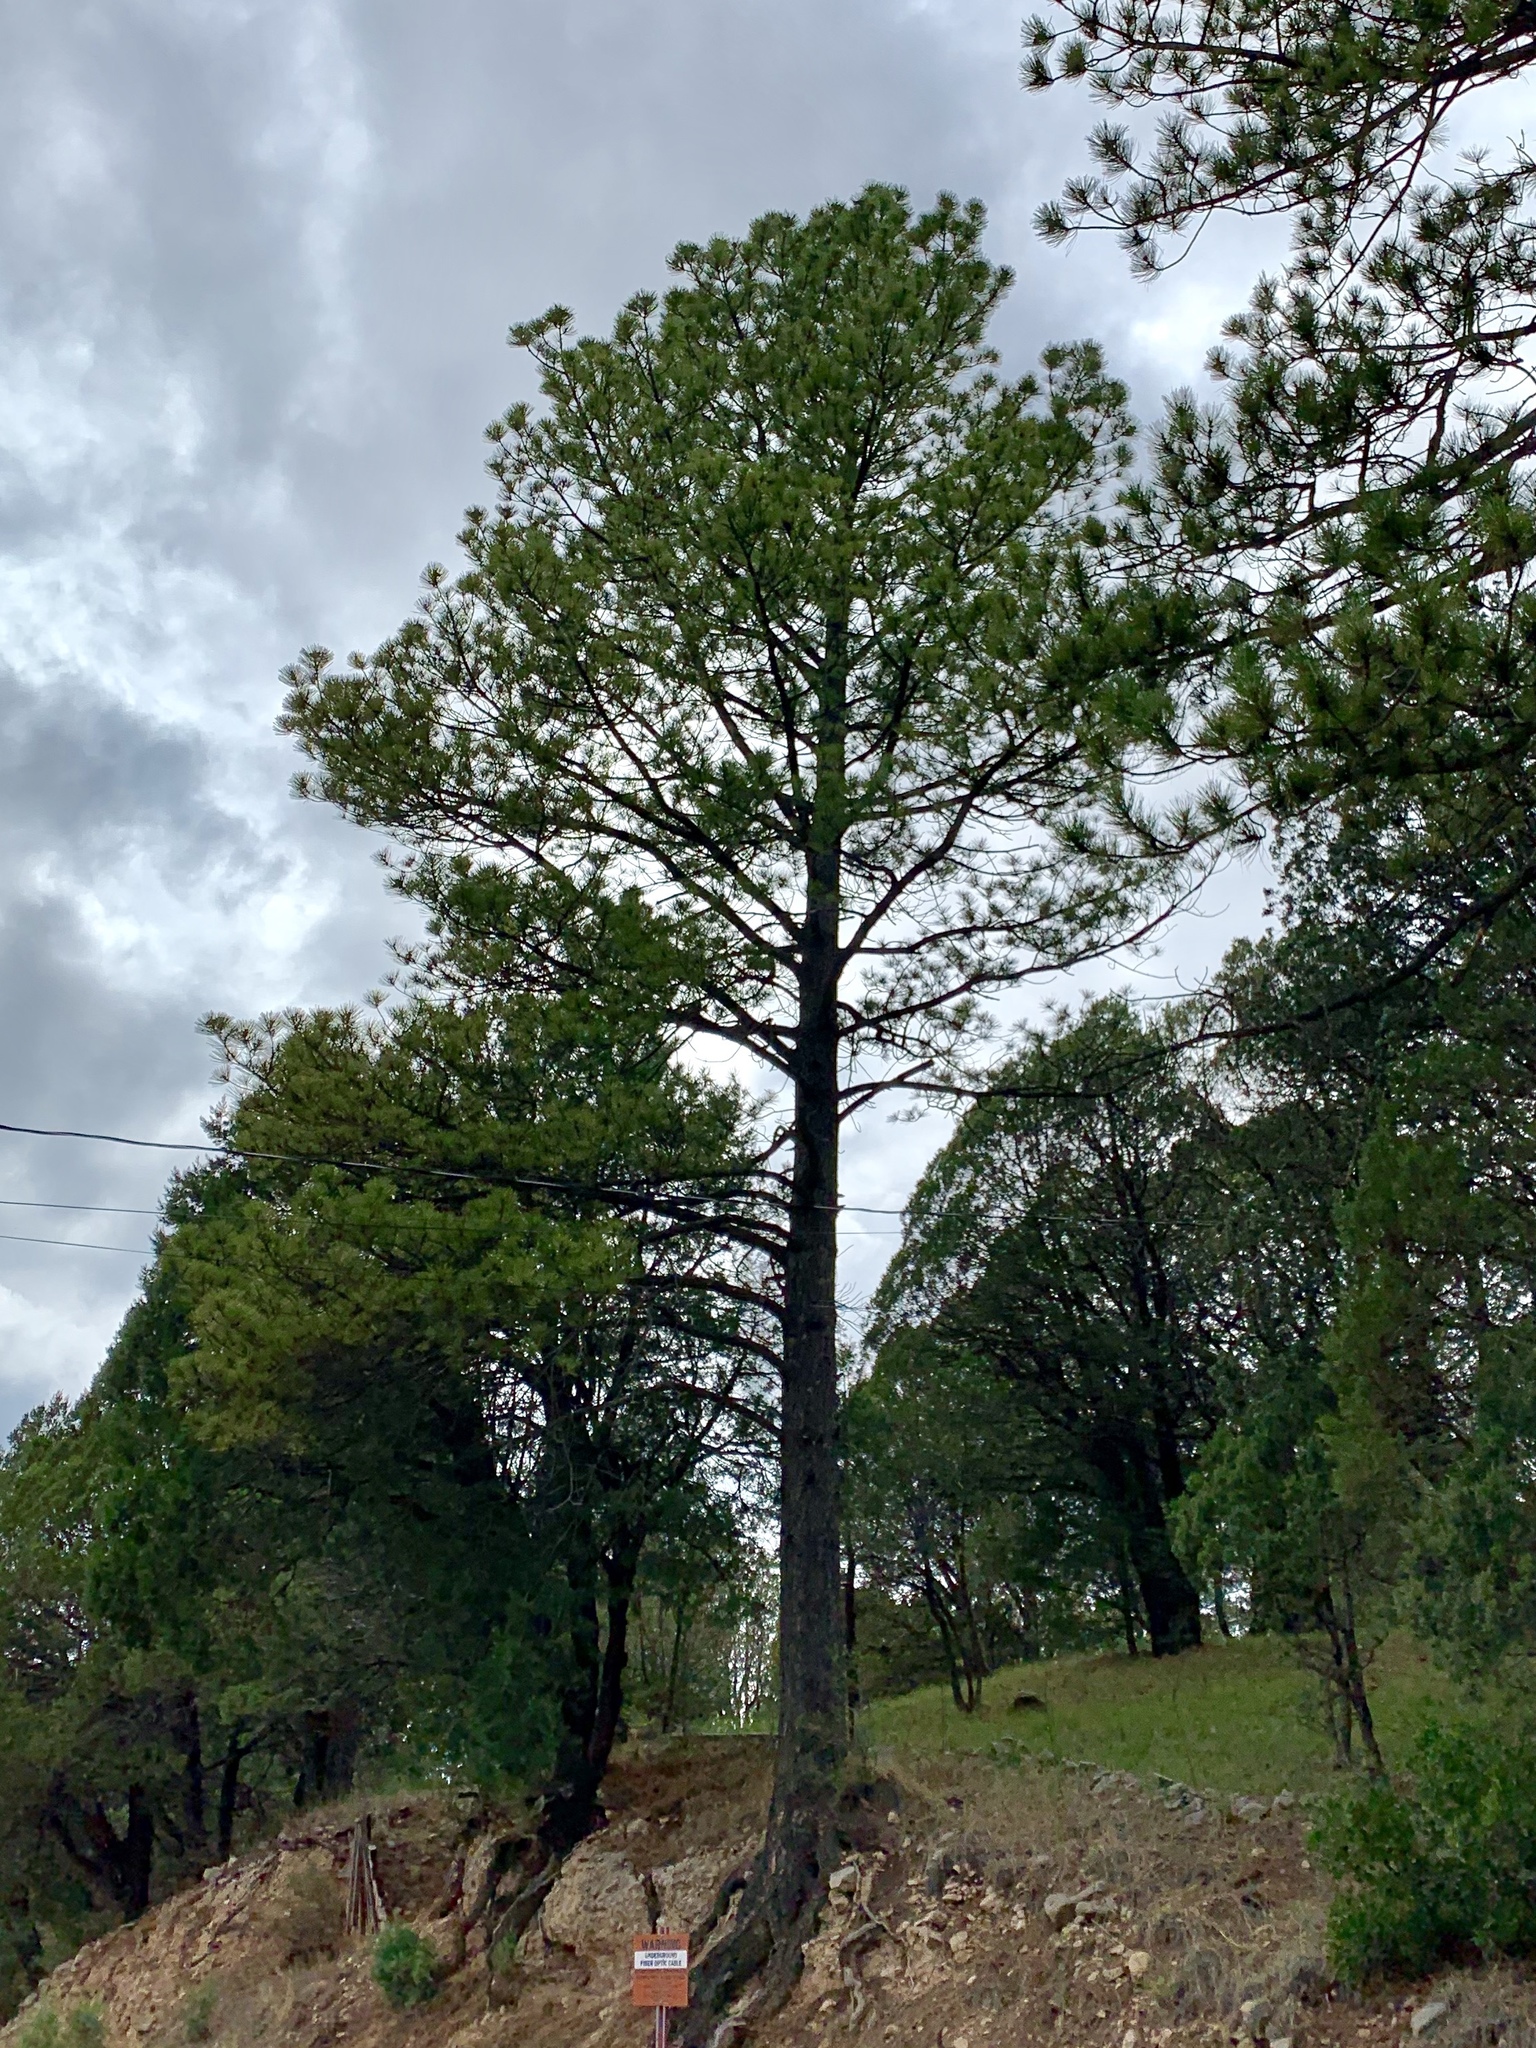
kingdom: Plantae
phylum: Tracheophyta
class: Pinopsida
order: Pinales
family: Pinaceae
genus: Pinus
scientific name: Pinus ponderosa
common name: Western yellow-pine
